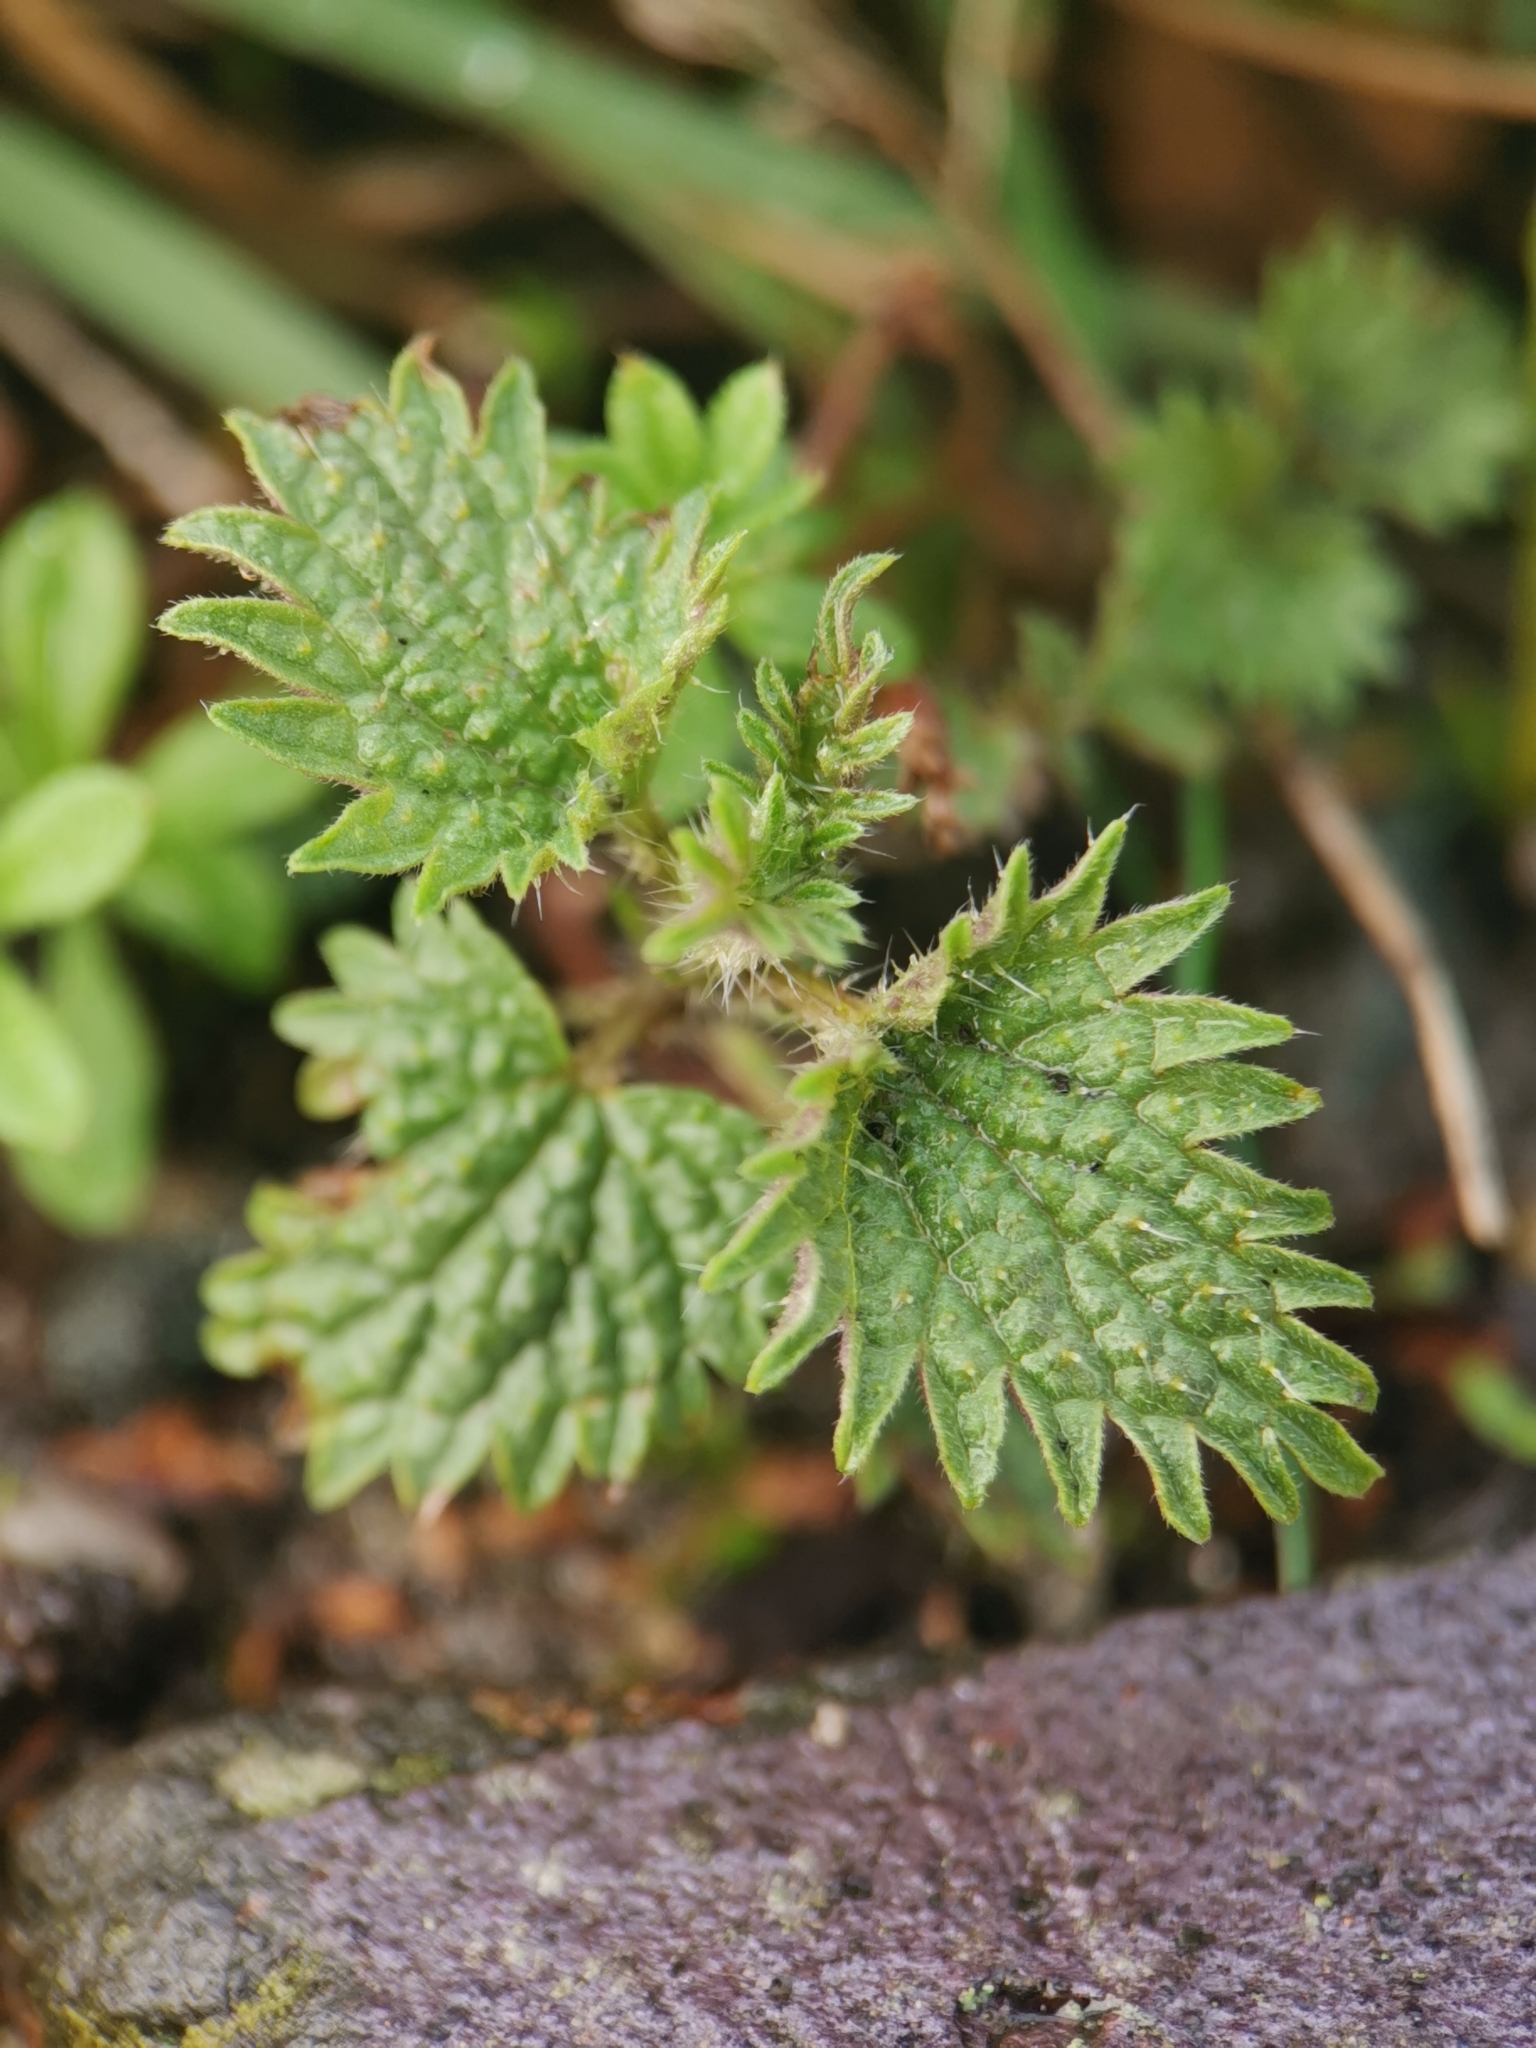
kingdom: Plantae
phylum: Tracheophyta
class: Magnoliopsida
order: Rosales
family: Urticaceae
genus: Urtica
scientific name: Urtica dioica
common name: Common nettle
